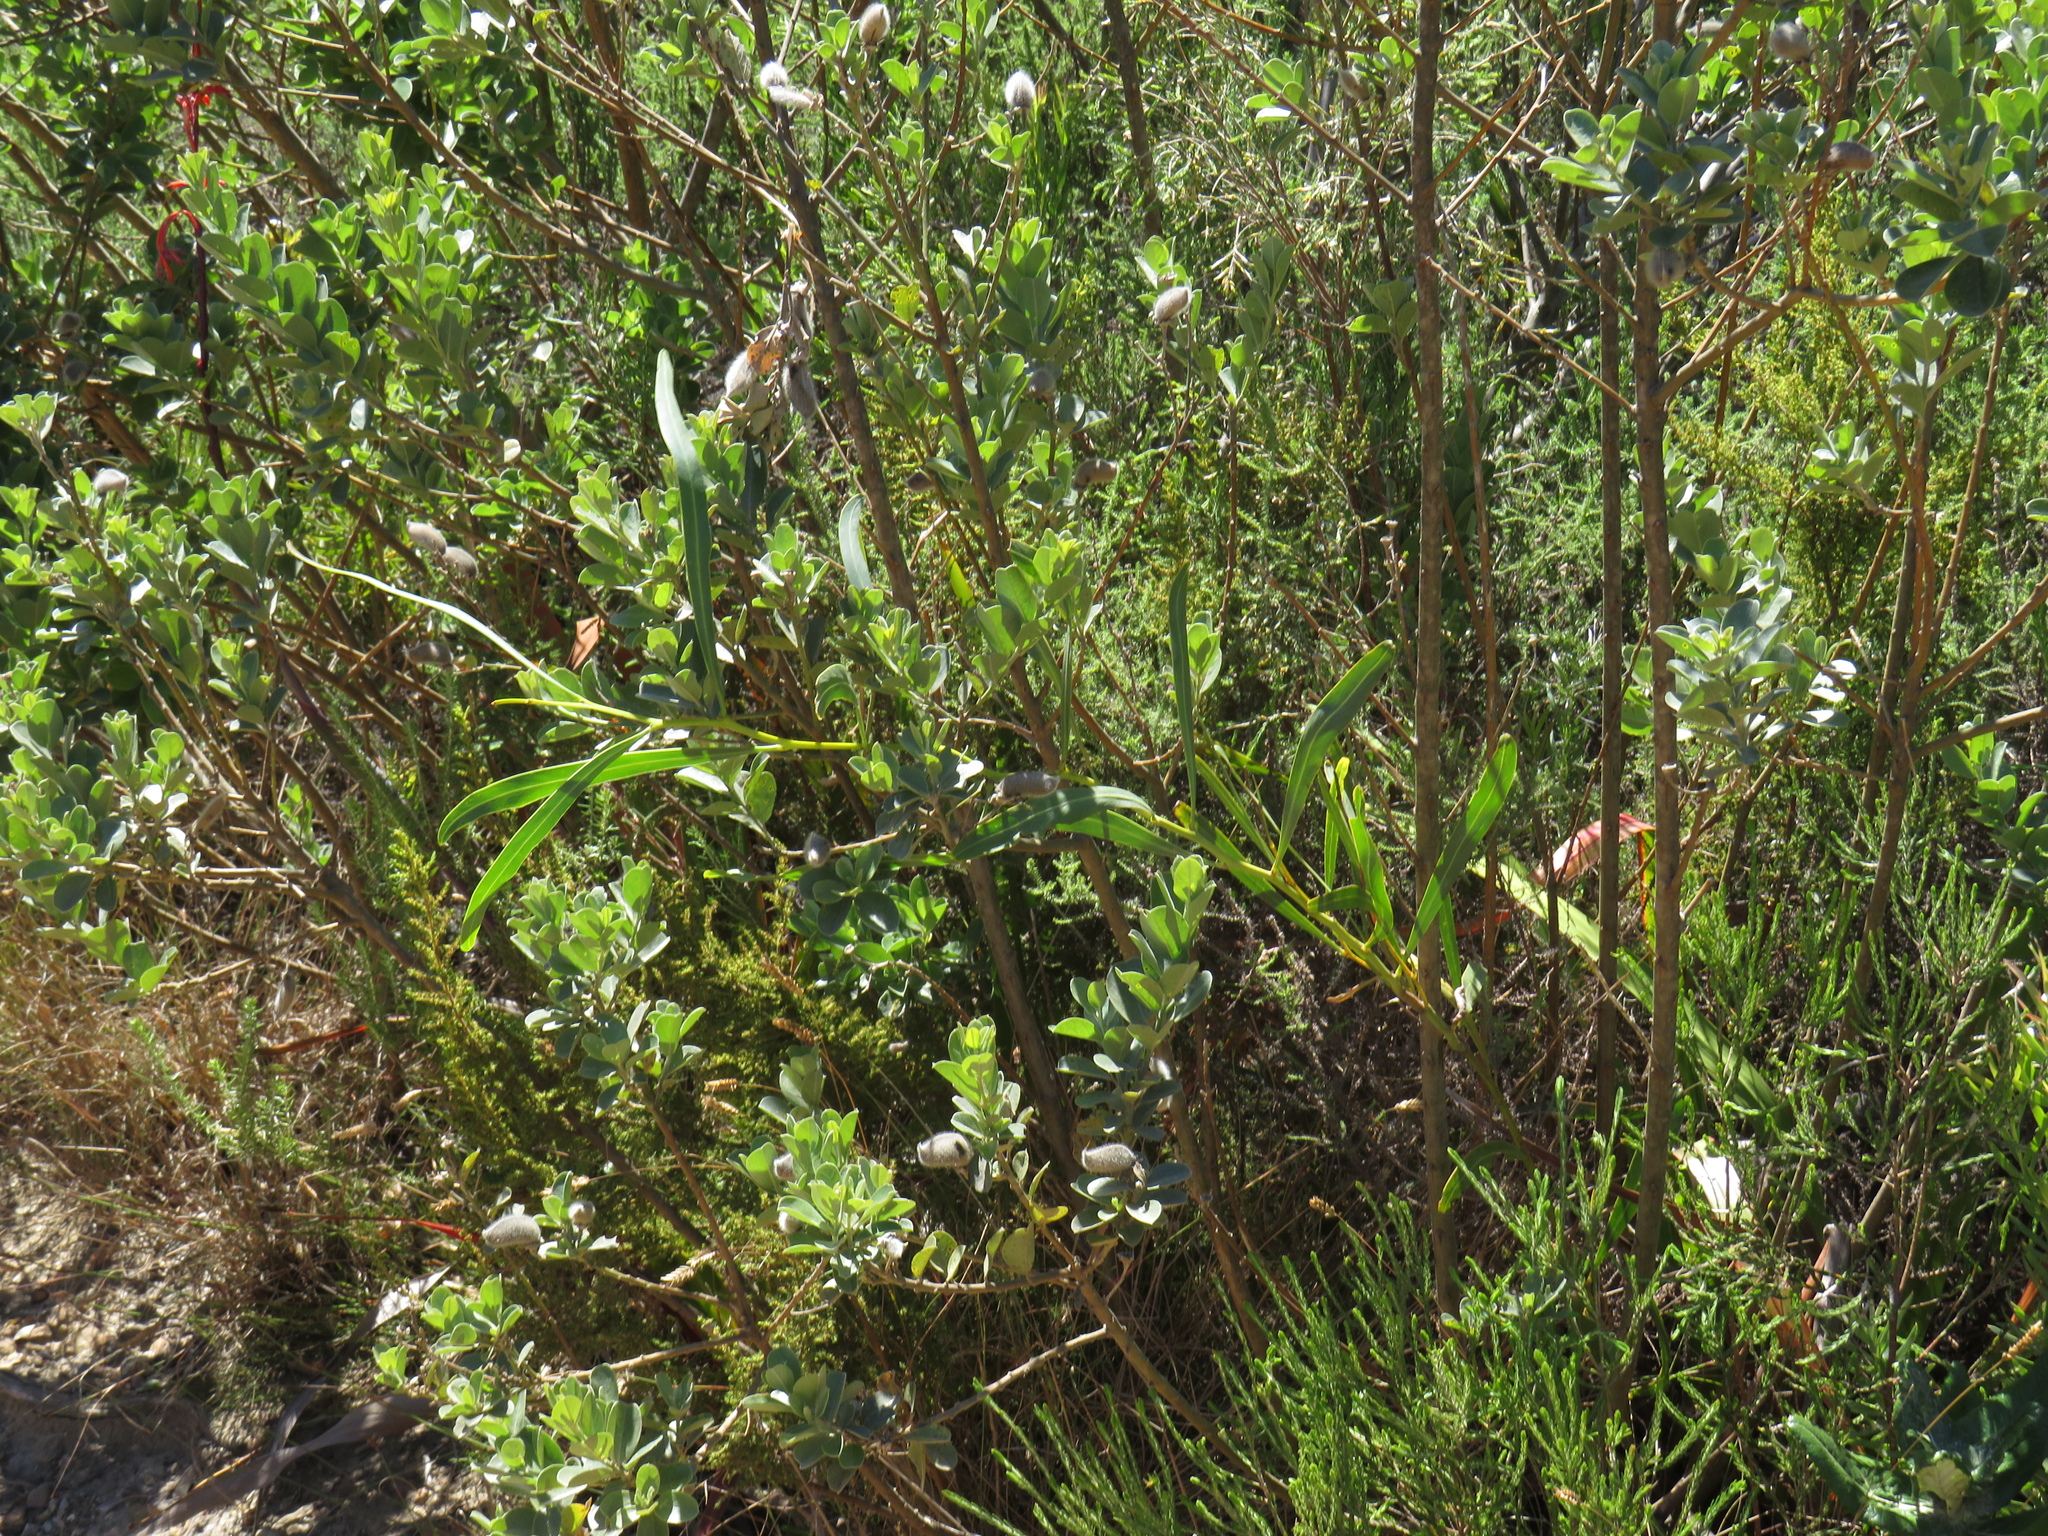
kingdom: Plantae
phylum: Tracheophyta
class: Magnoliopsida
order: Fabales
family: Fabaceae
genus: Acacia
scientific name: Acacia saligna
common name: Orange wattle
